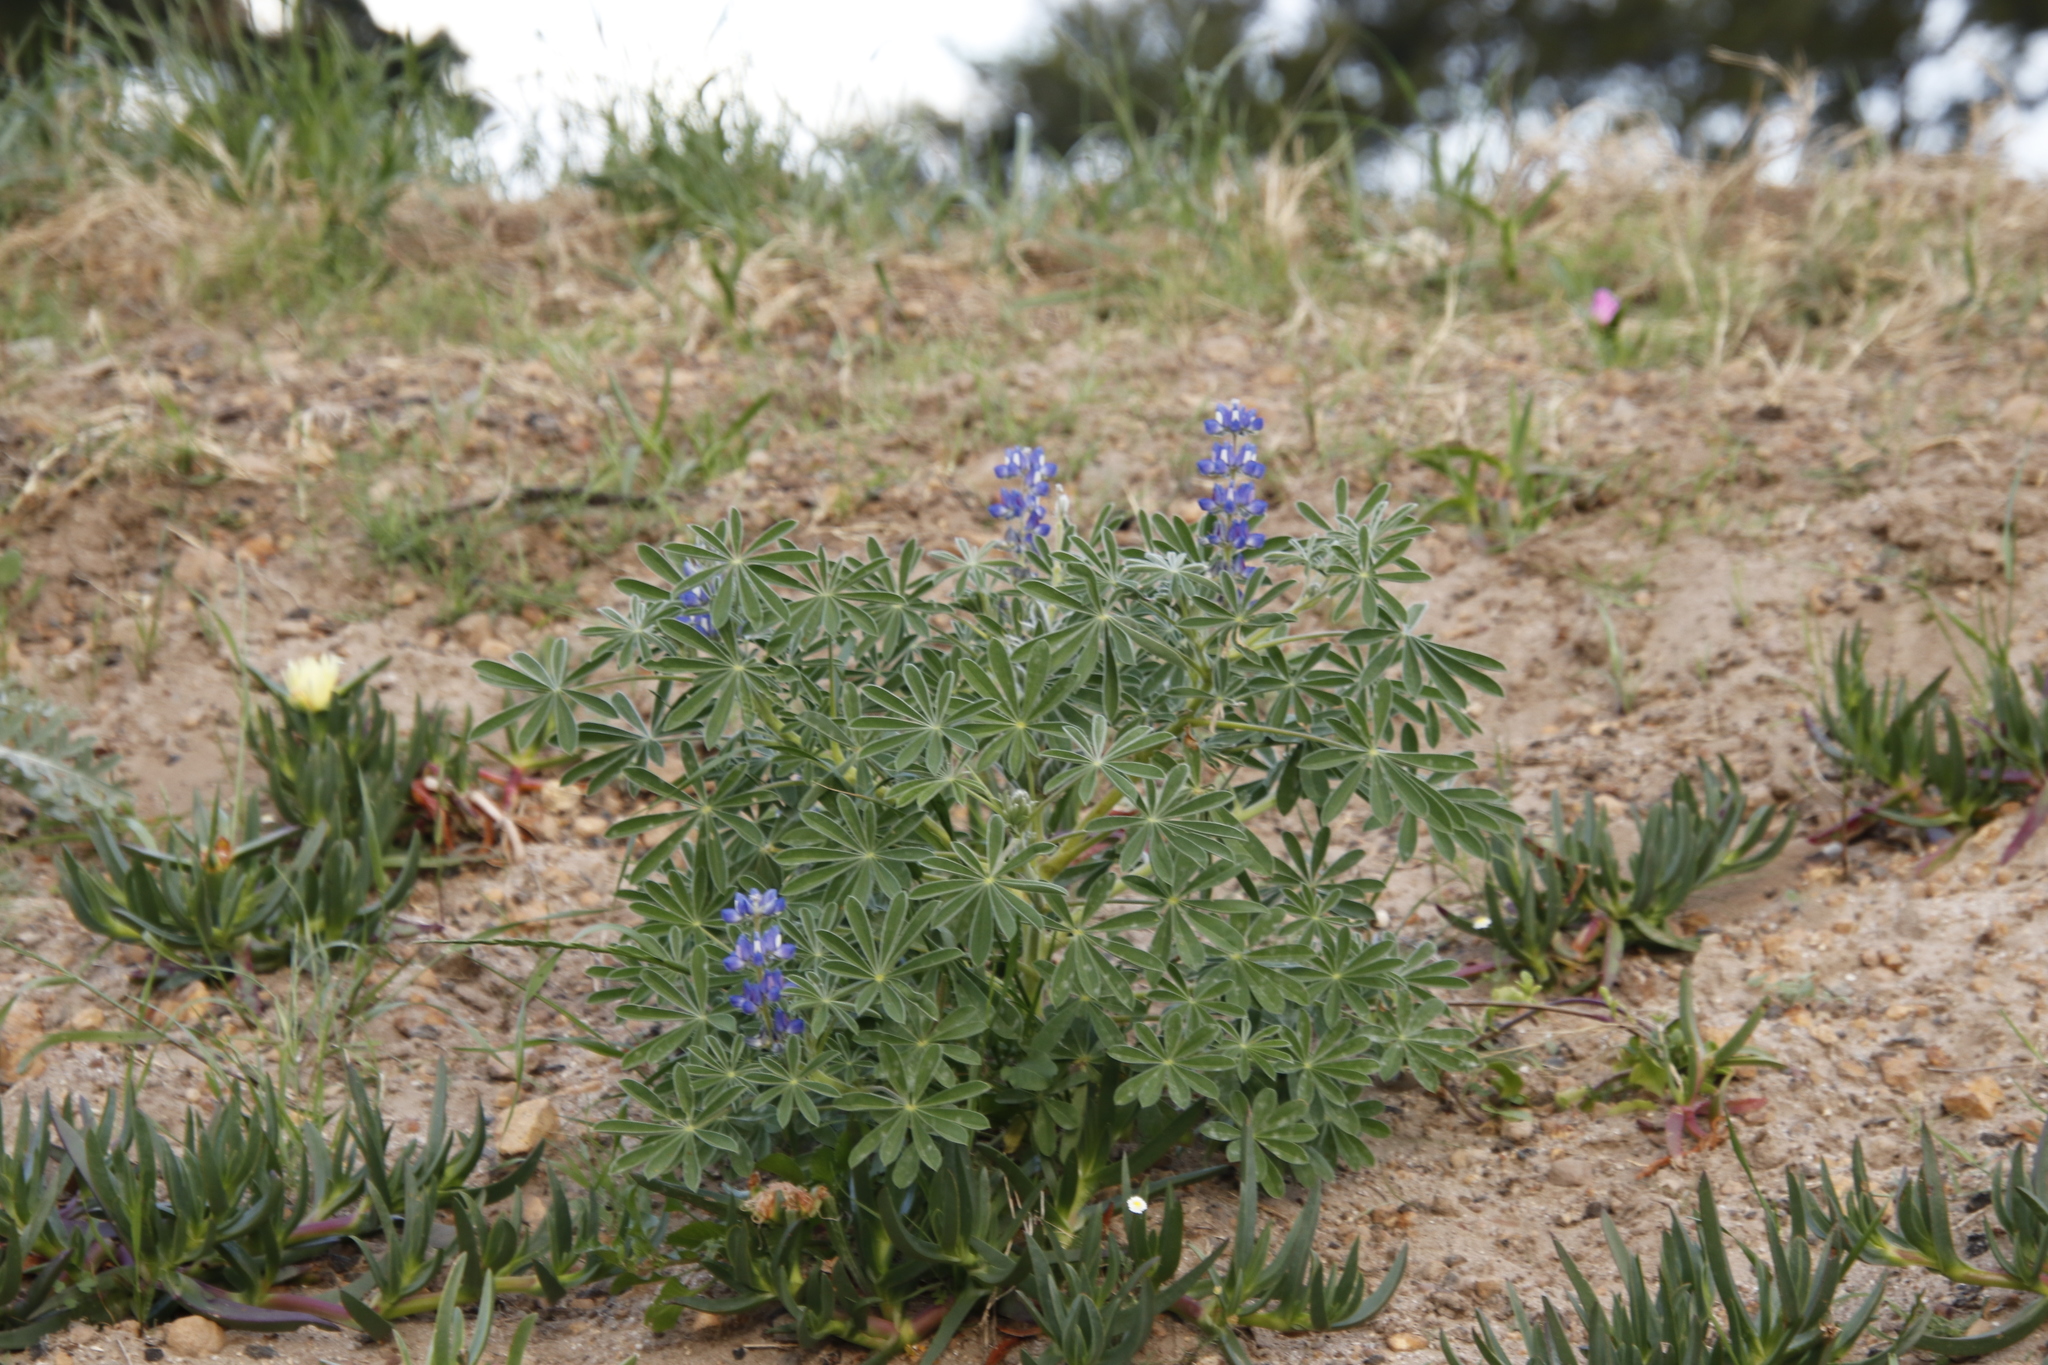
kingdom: Plantae
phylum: Tracheophyta
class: Magnoliopsida
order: Fabales
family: Fabaceae
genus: Lupinus
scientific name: Lupinus cosentinii
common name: Hairy blue lupin
